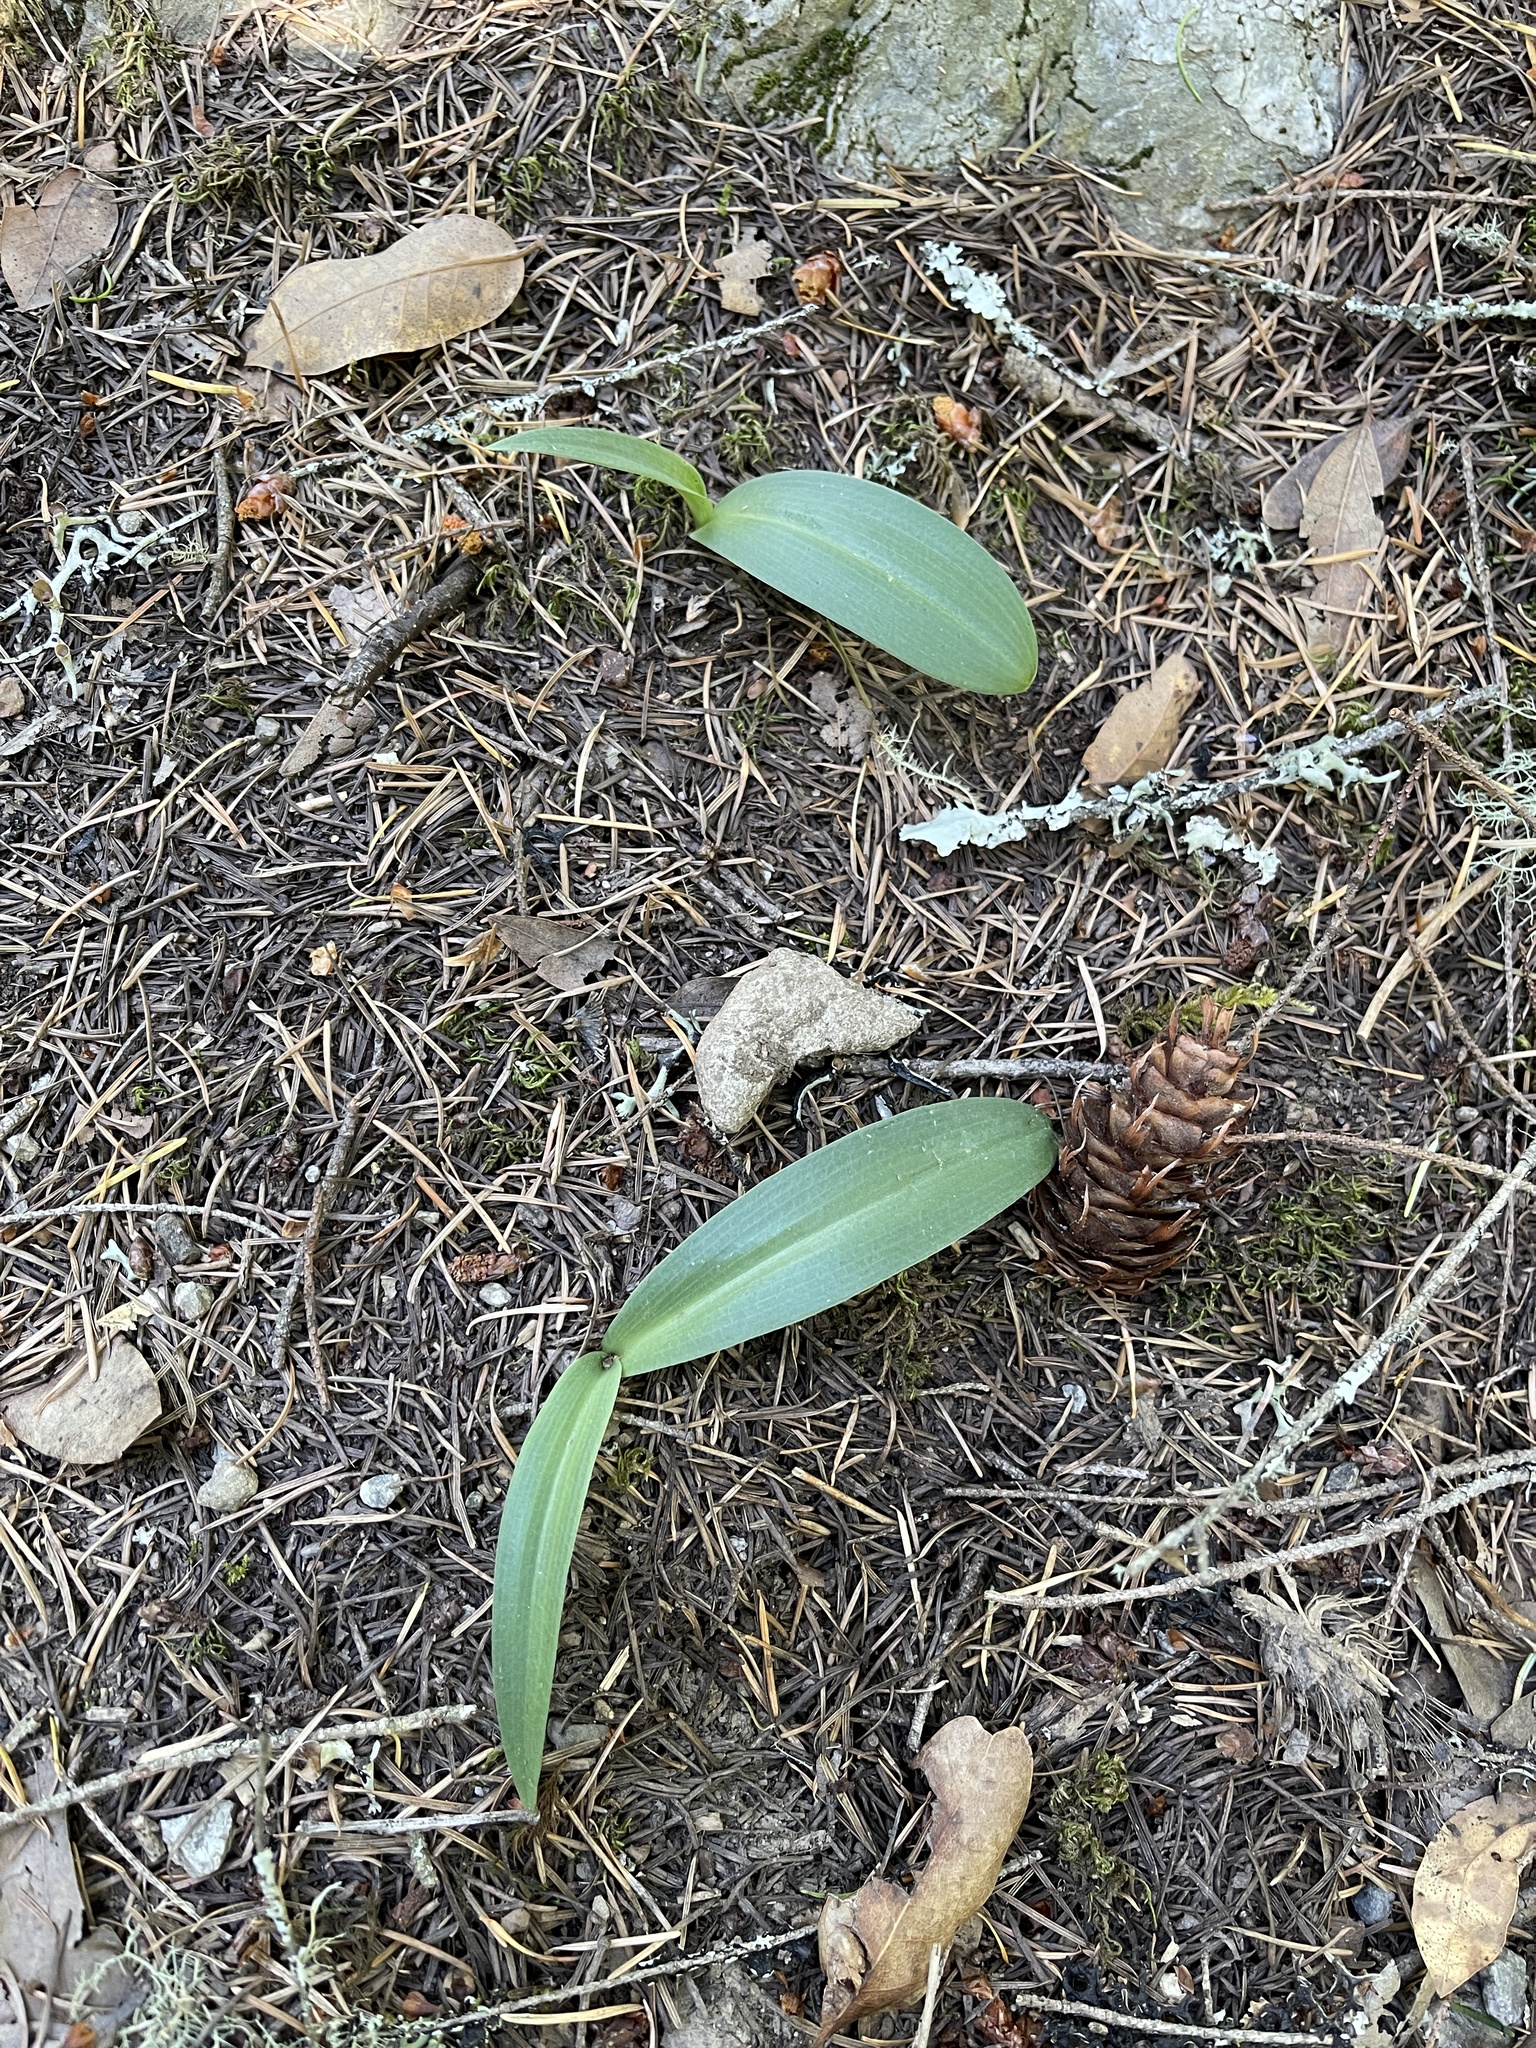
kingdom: Plantae
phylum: Tracheophyta
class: Liliopsida
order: Asparagales
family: Orchidaceae
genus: Platanthera
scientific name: Platanthera
